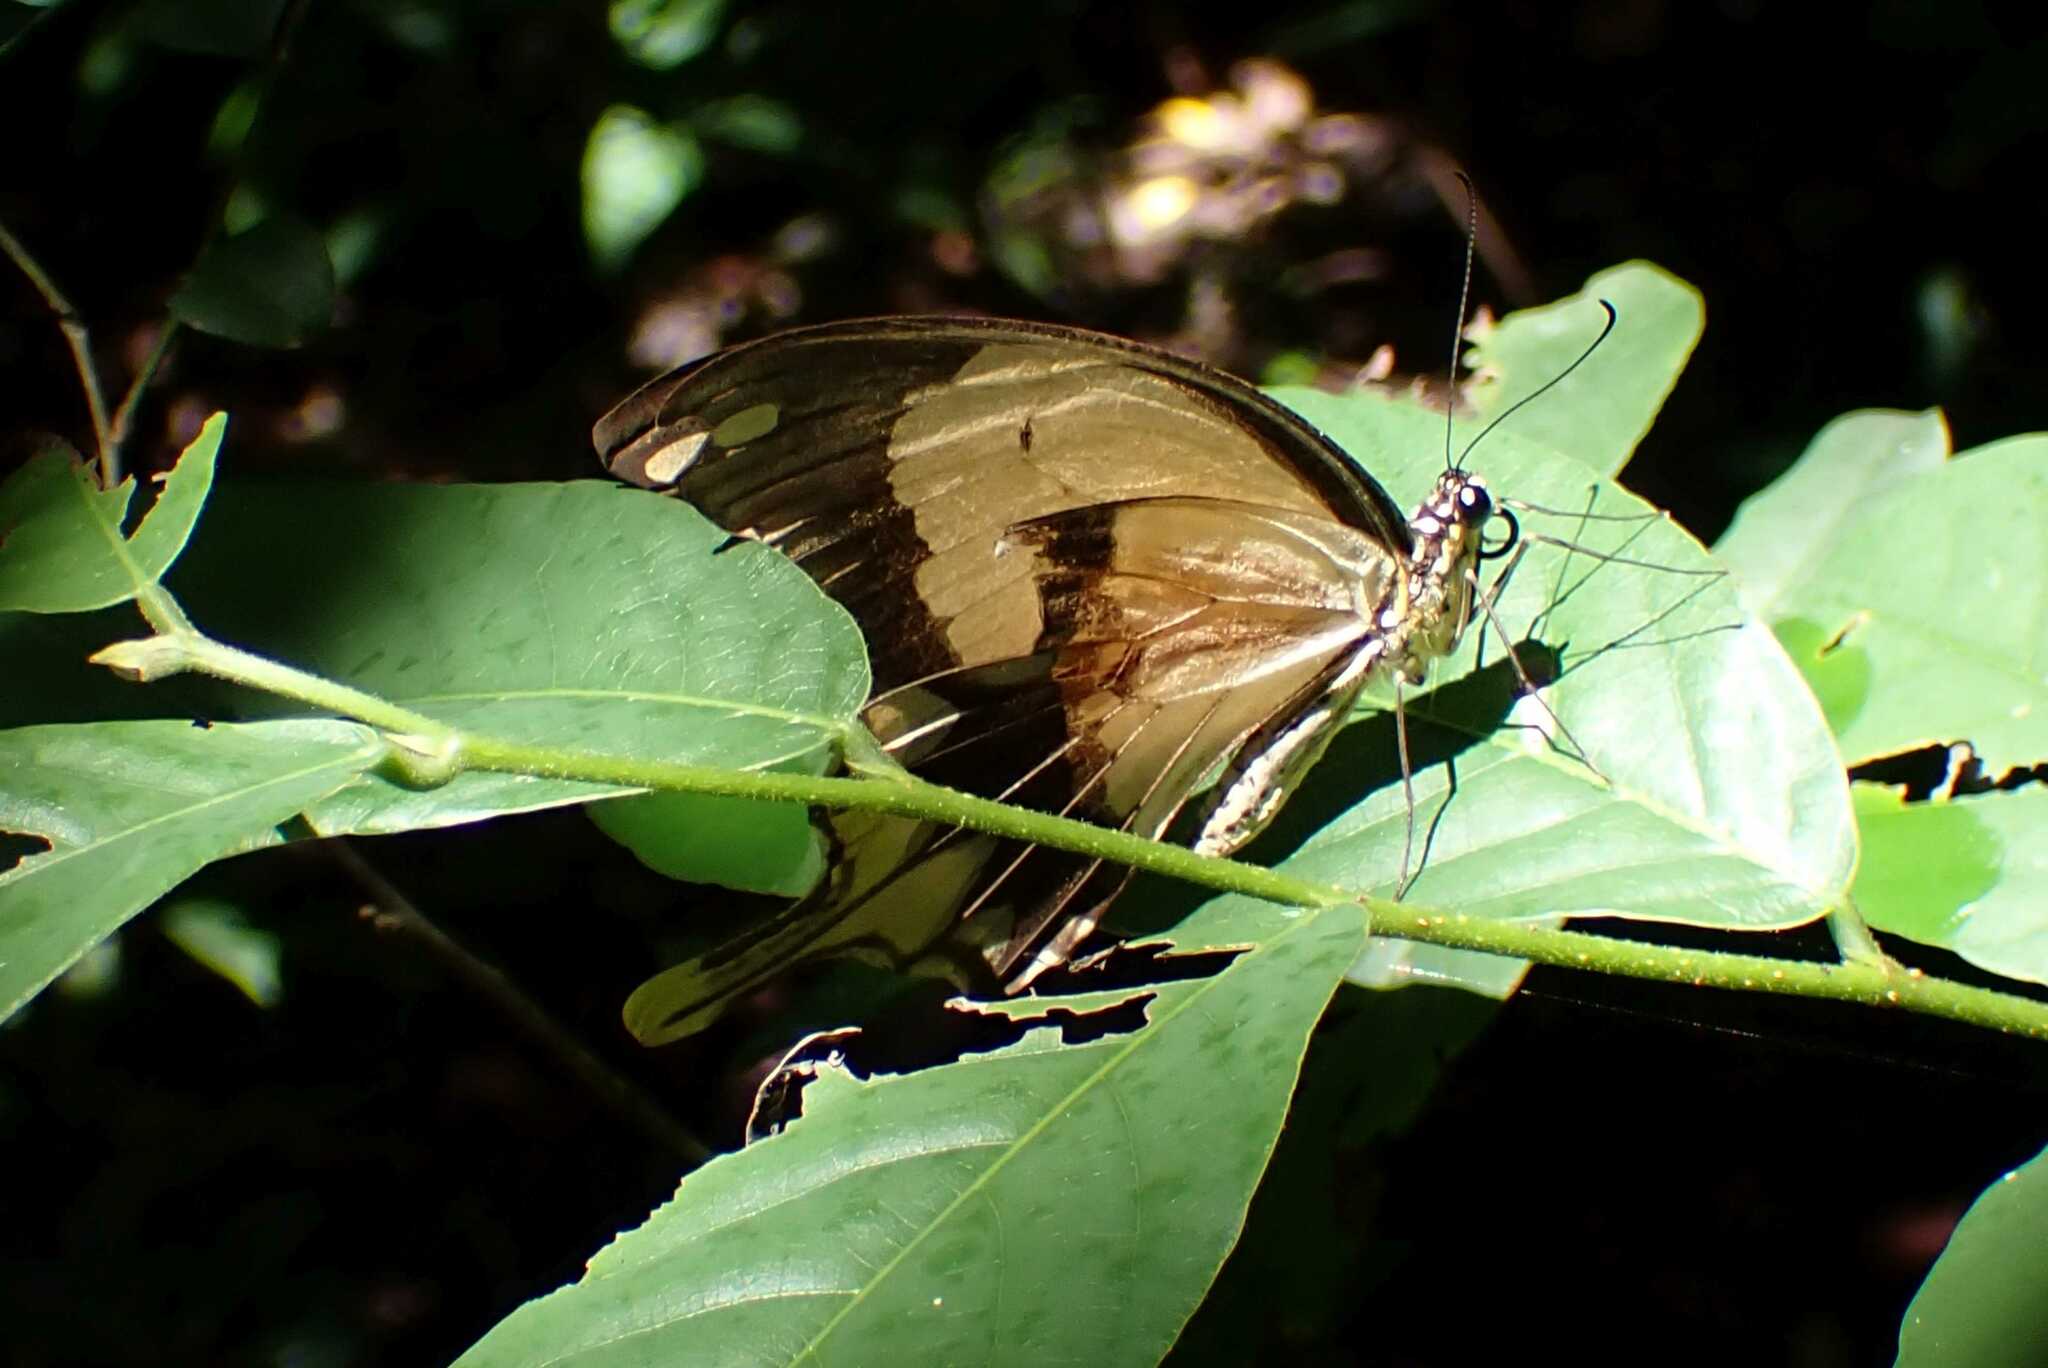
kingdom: Animalia
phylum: Arthropoda
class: Insecta
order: Lepidoptera
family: Papilionidae
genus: Papilio
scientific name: Papilio dardanus
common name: Flying handkerchief
